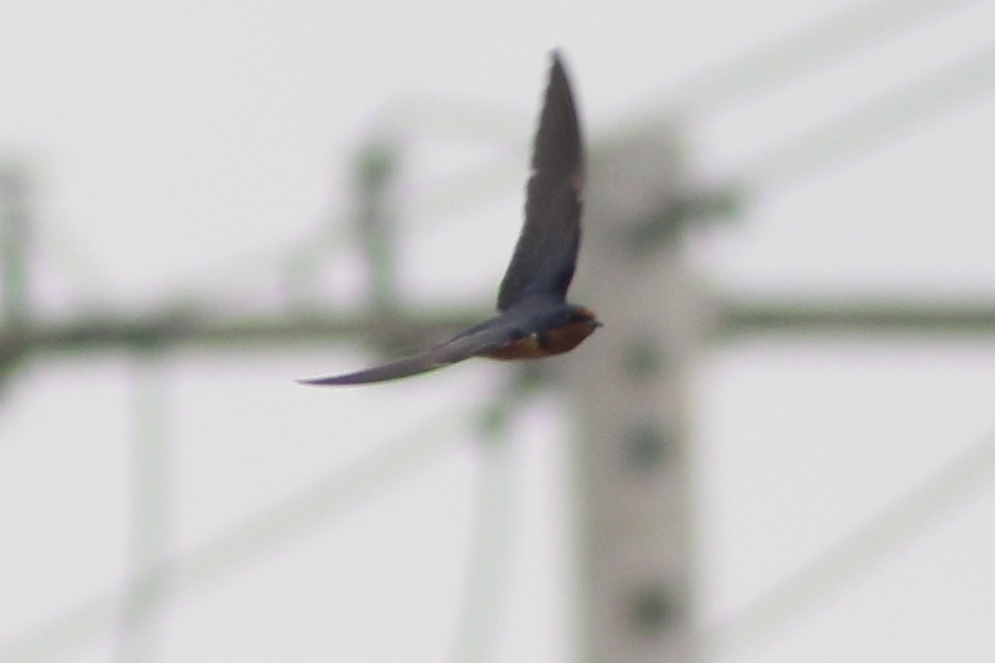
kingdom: Animalia
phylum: Chordata
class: Aves
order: Passeriformes
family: Hirundinidae
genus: Hirundo
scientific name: Hirundo rustica
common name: Barn swallow
